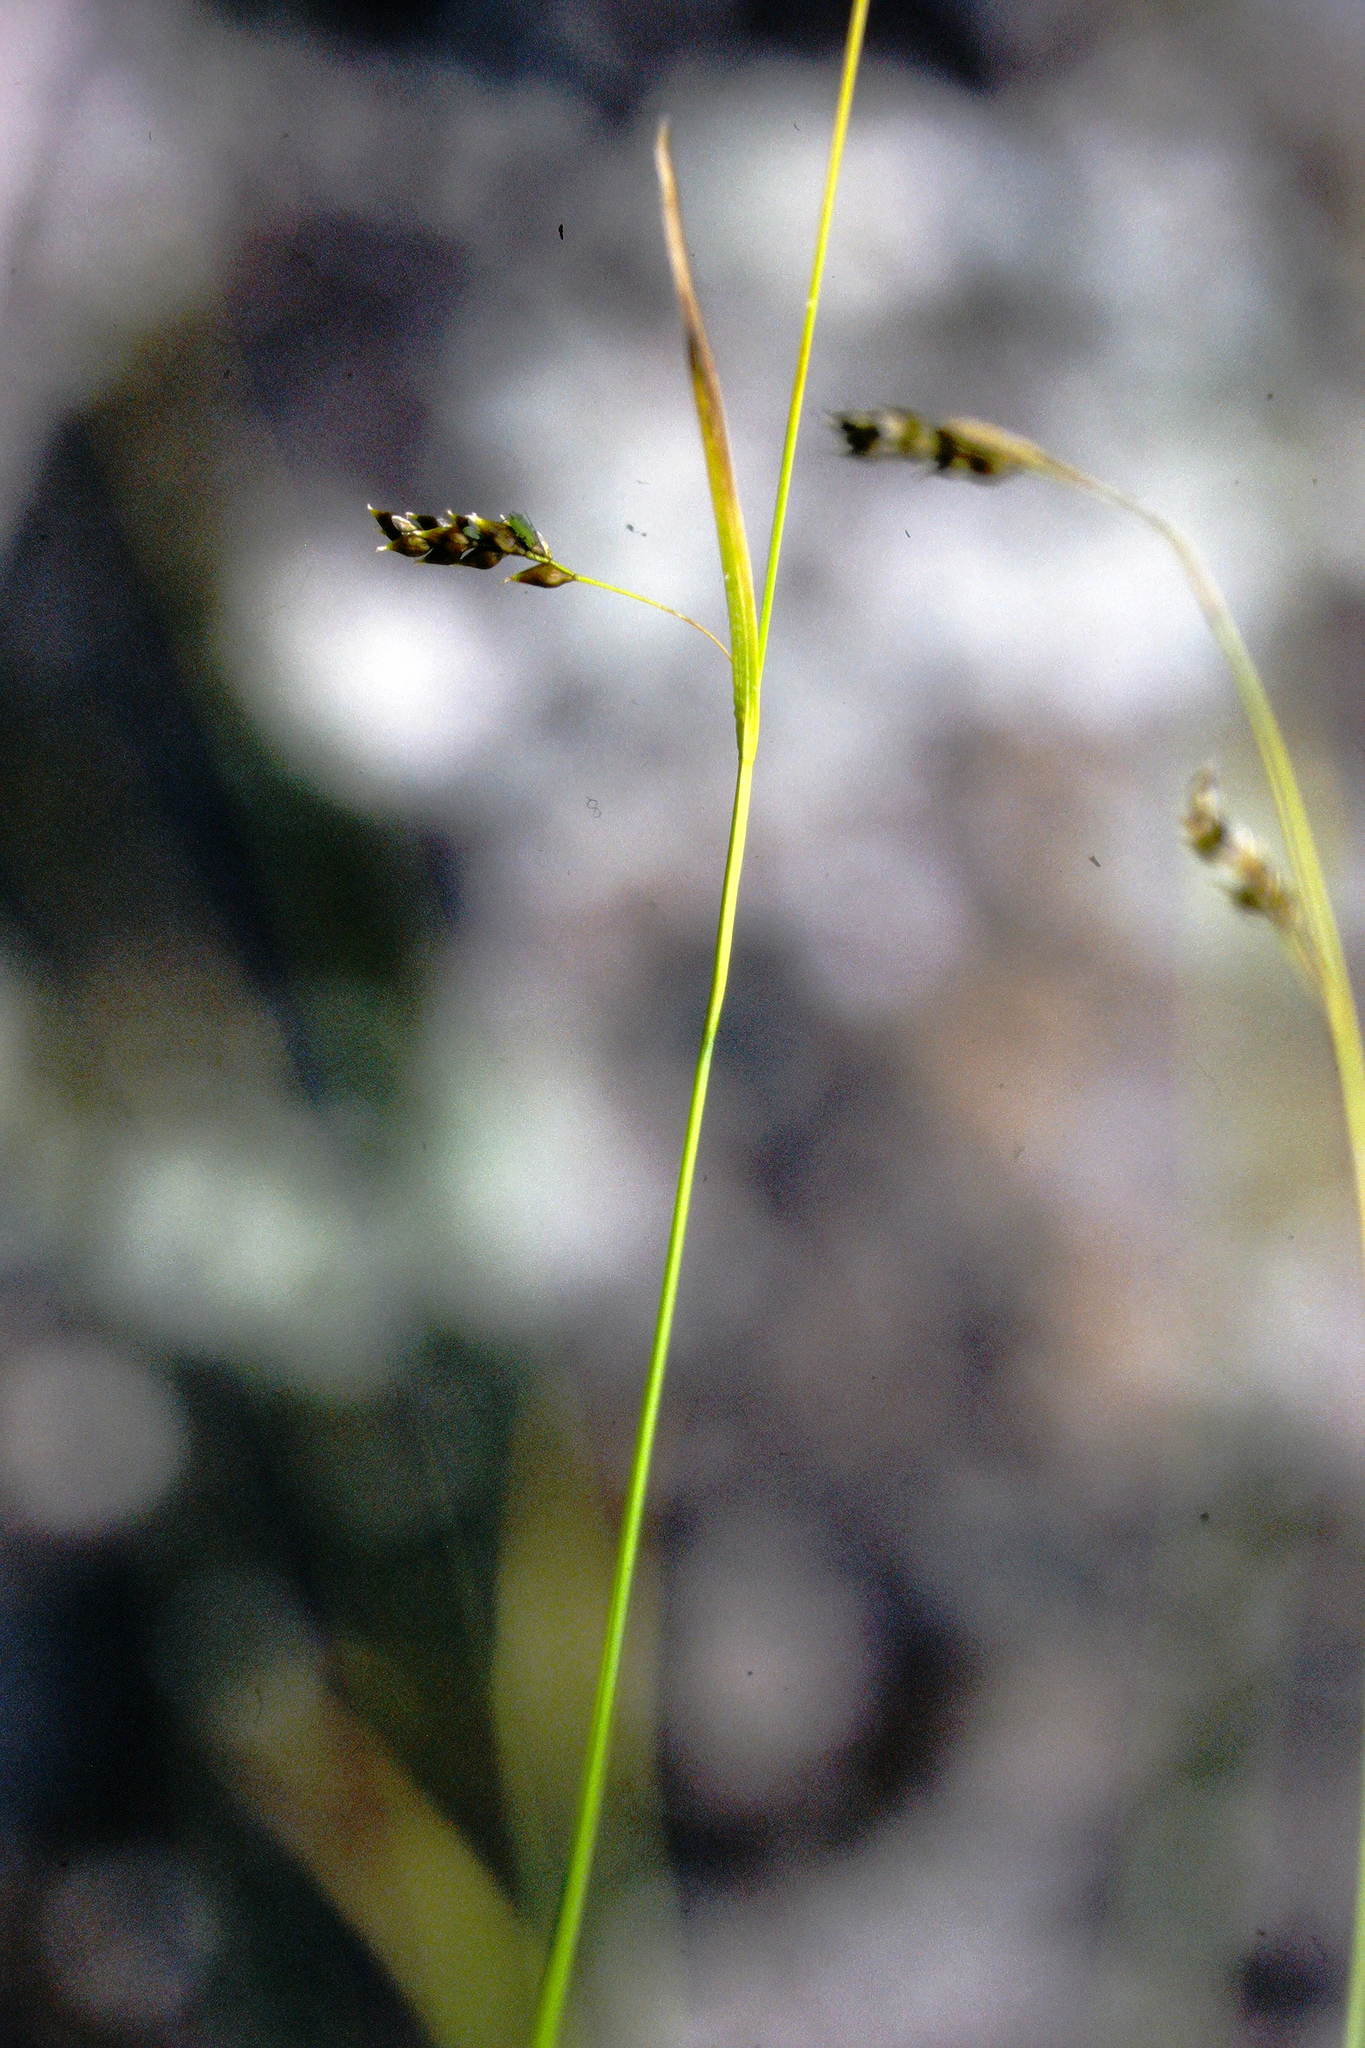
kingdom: Plantae
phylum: Tracheophyta
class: Liliopsida
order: Poales
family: Cyperaceae
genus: Carex
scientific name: Carex capillaris
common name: Hair sedge
